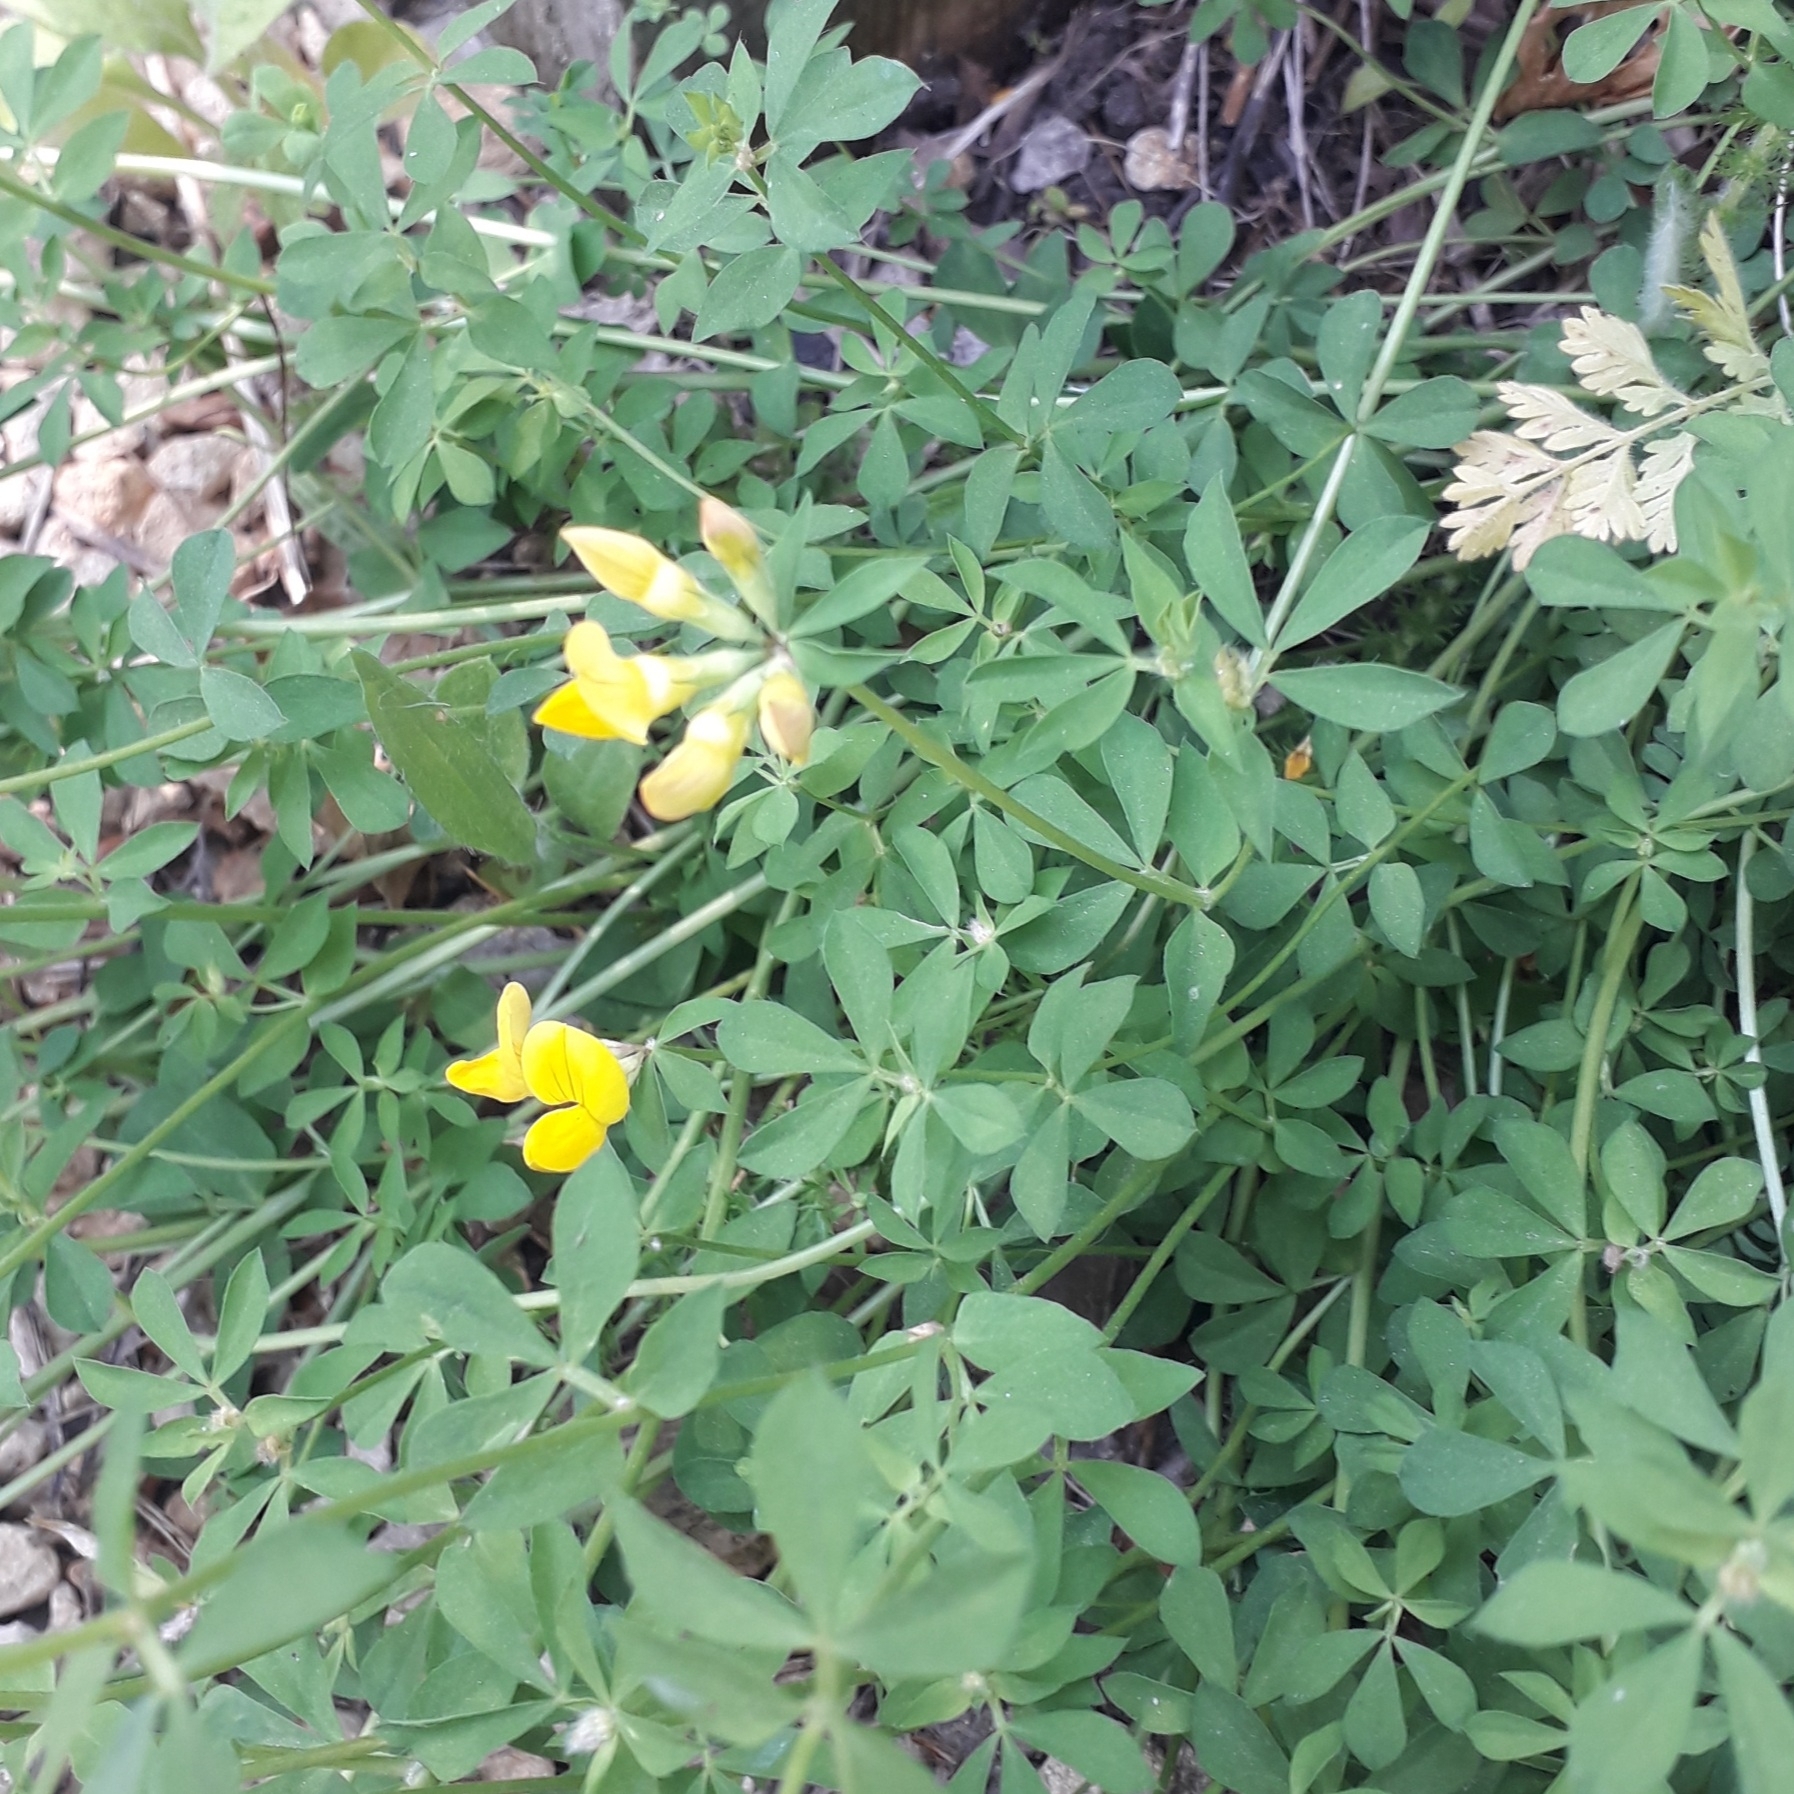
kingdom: Plantae
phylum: Tracheophyta
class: Magnoliopsida
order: Fabales
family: Fabaceae
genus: Lotus
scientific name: Lotus corniculatus
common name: Common bird's-foot-trefoil
